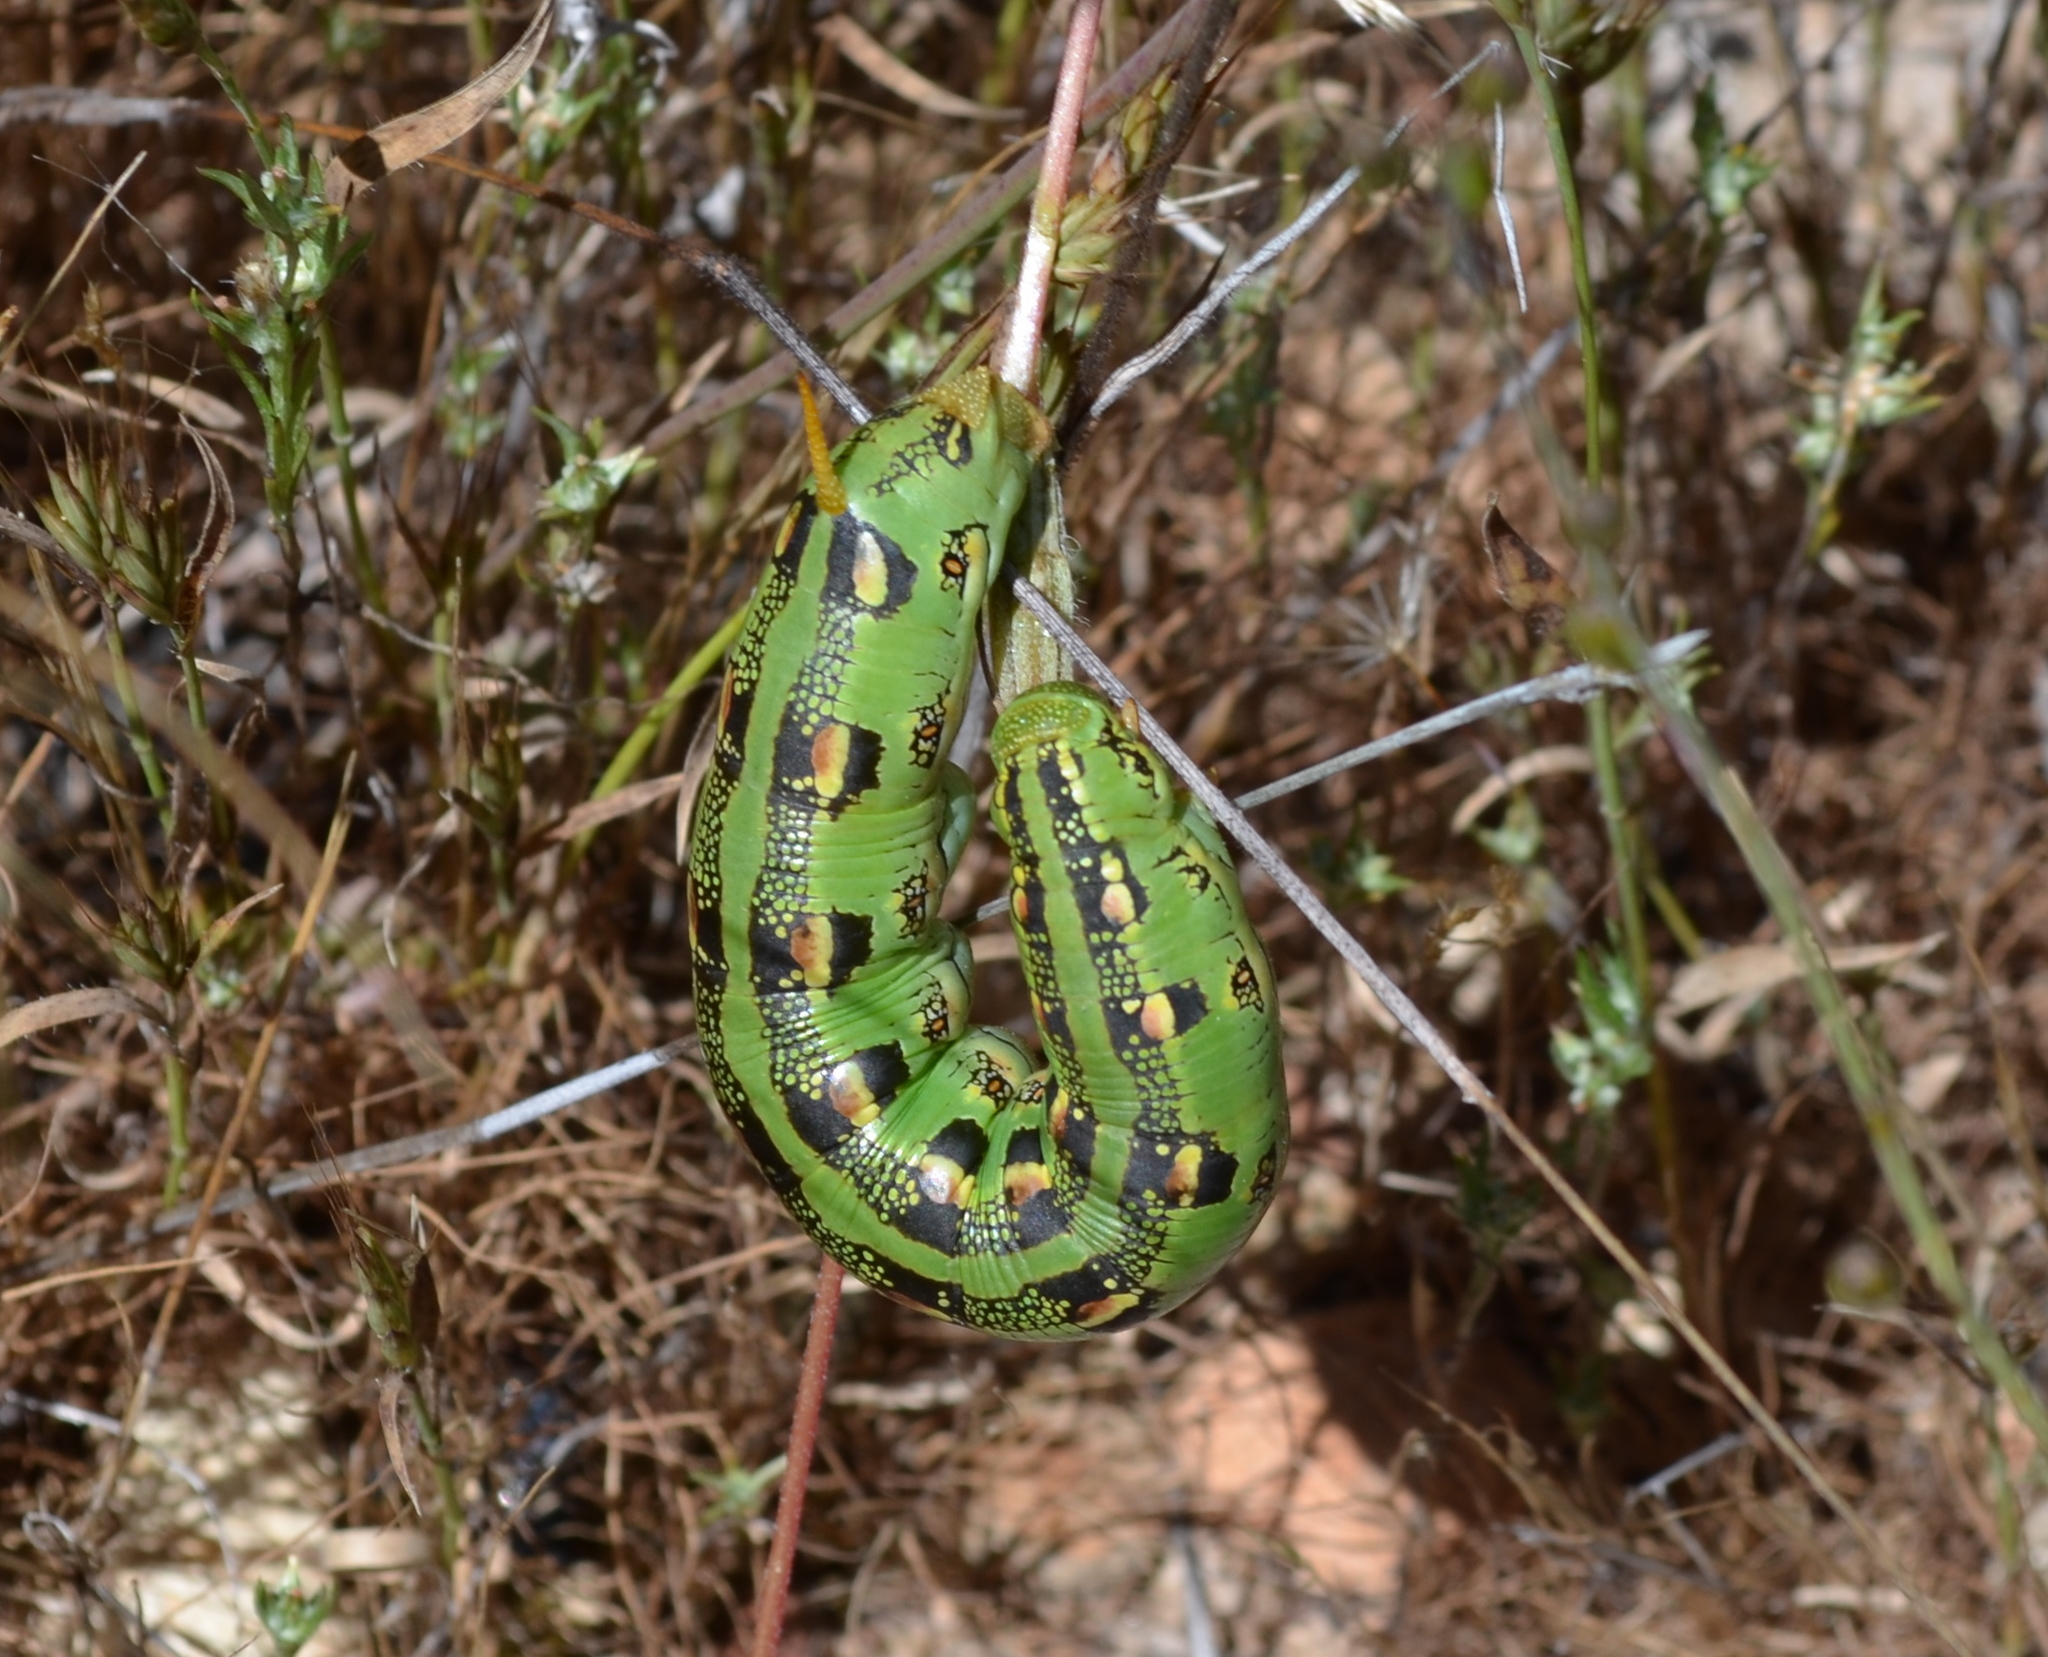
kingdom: Animalia
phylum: Arthropoda
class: Insecta
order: Lepidoptera
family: Sphingidae
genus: Hyles
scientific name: Hyles lineata
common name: White-lined sphinx
